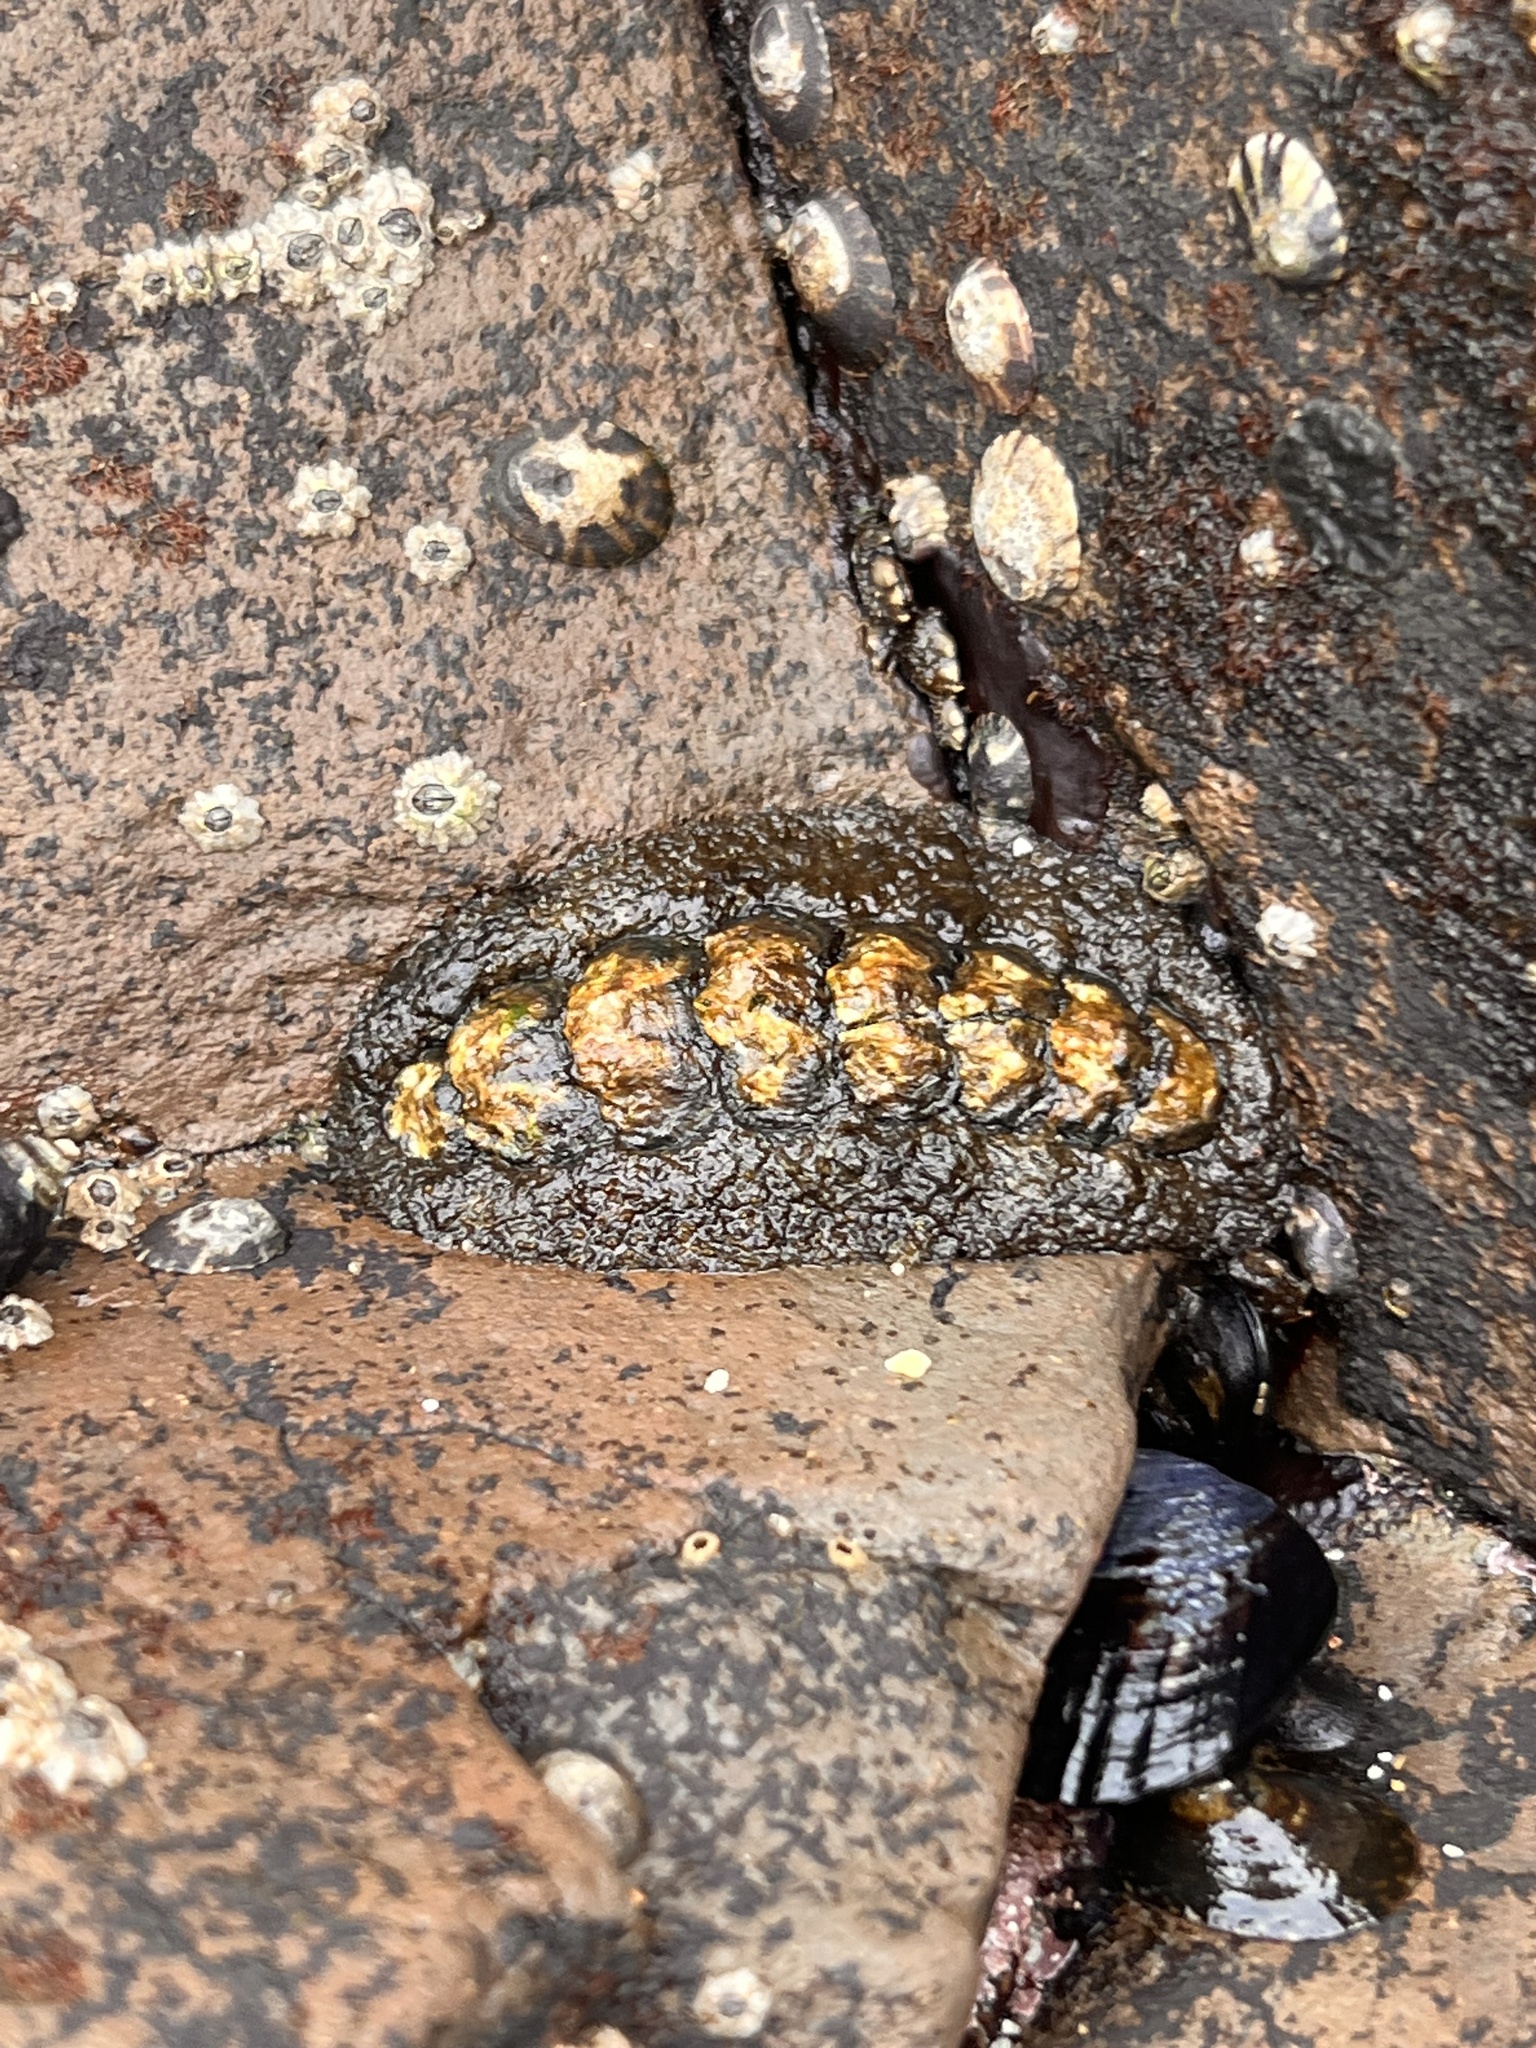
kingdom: Animalia
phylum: Mollusca
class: Polyplacophora
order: Chitonida
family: Tonicellidae
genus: Nuttallina
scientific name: Nuttallina californica
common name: California nuttall chiton
